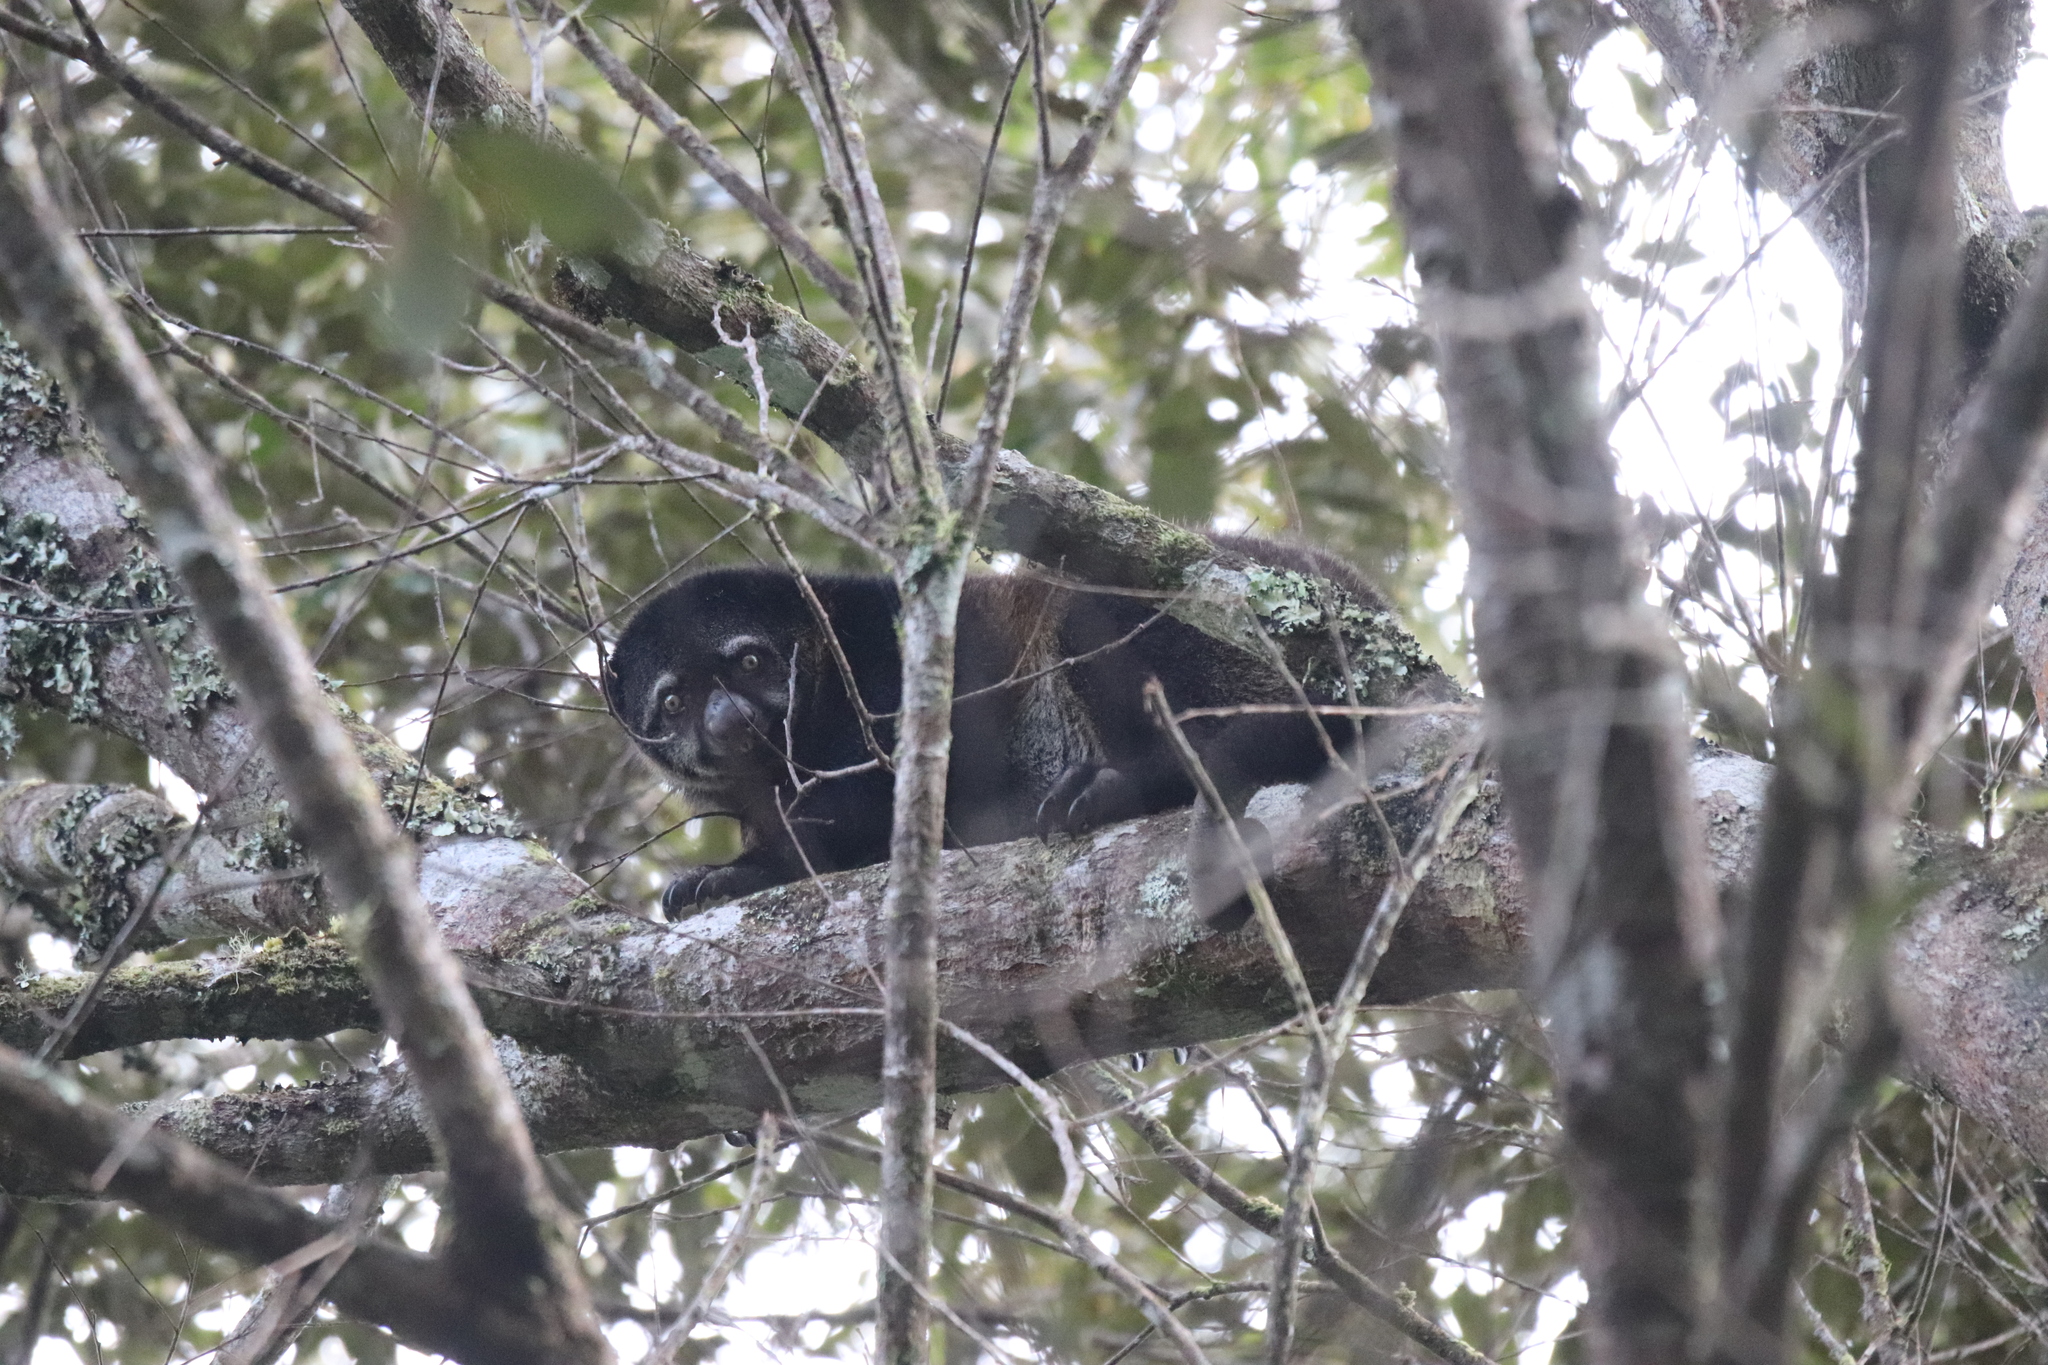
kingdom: Animalia
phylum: Chordata
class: Mammalia
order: Diprotodontia
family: Phalangeridae
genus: Ailurops
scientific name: Ailurops ursinus
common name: Sulawesi bear cuscus
